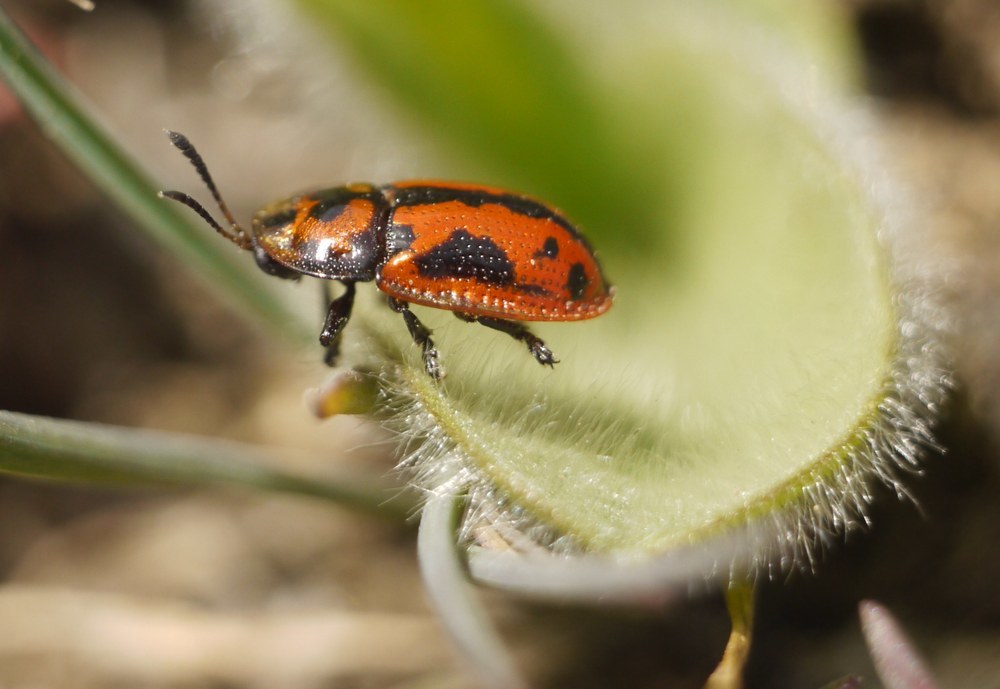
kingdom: Animalia
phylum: Arthropoda
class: Insecta
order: Coleoptera
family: Chrysomelidae
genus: Pilemostoma
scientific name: Pilemostoma fastuosa
